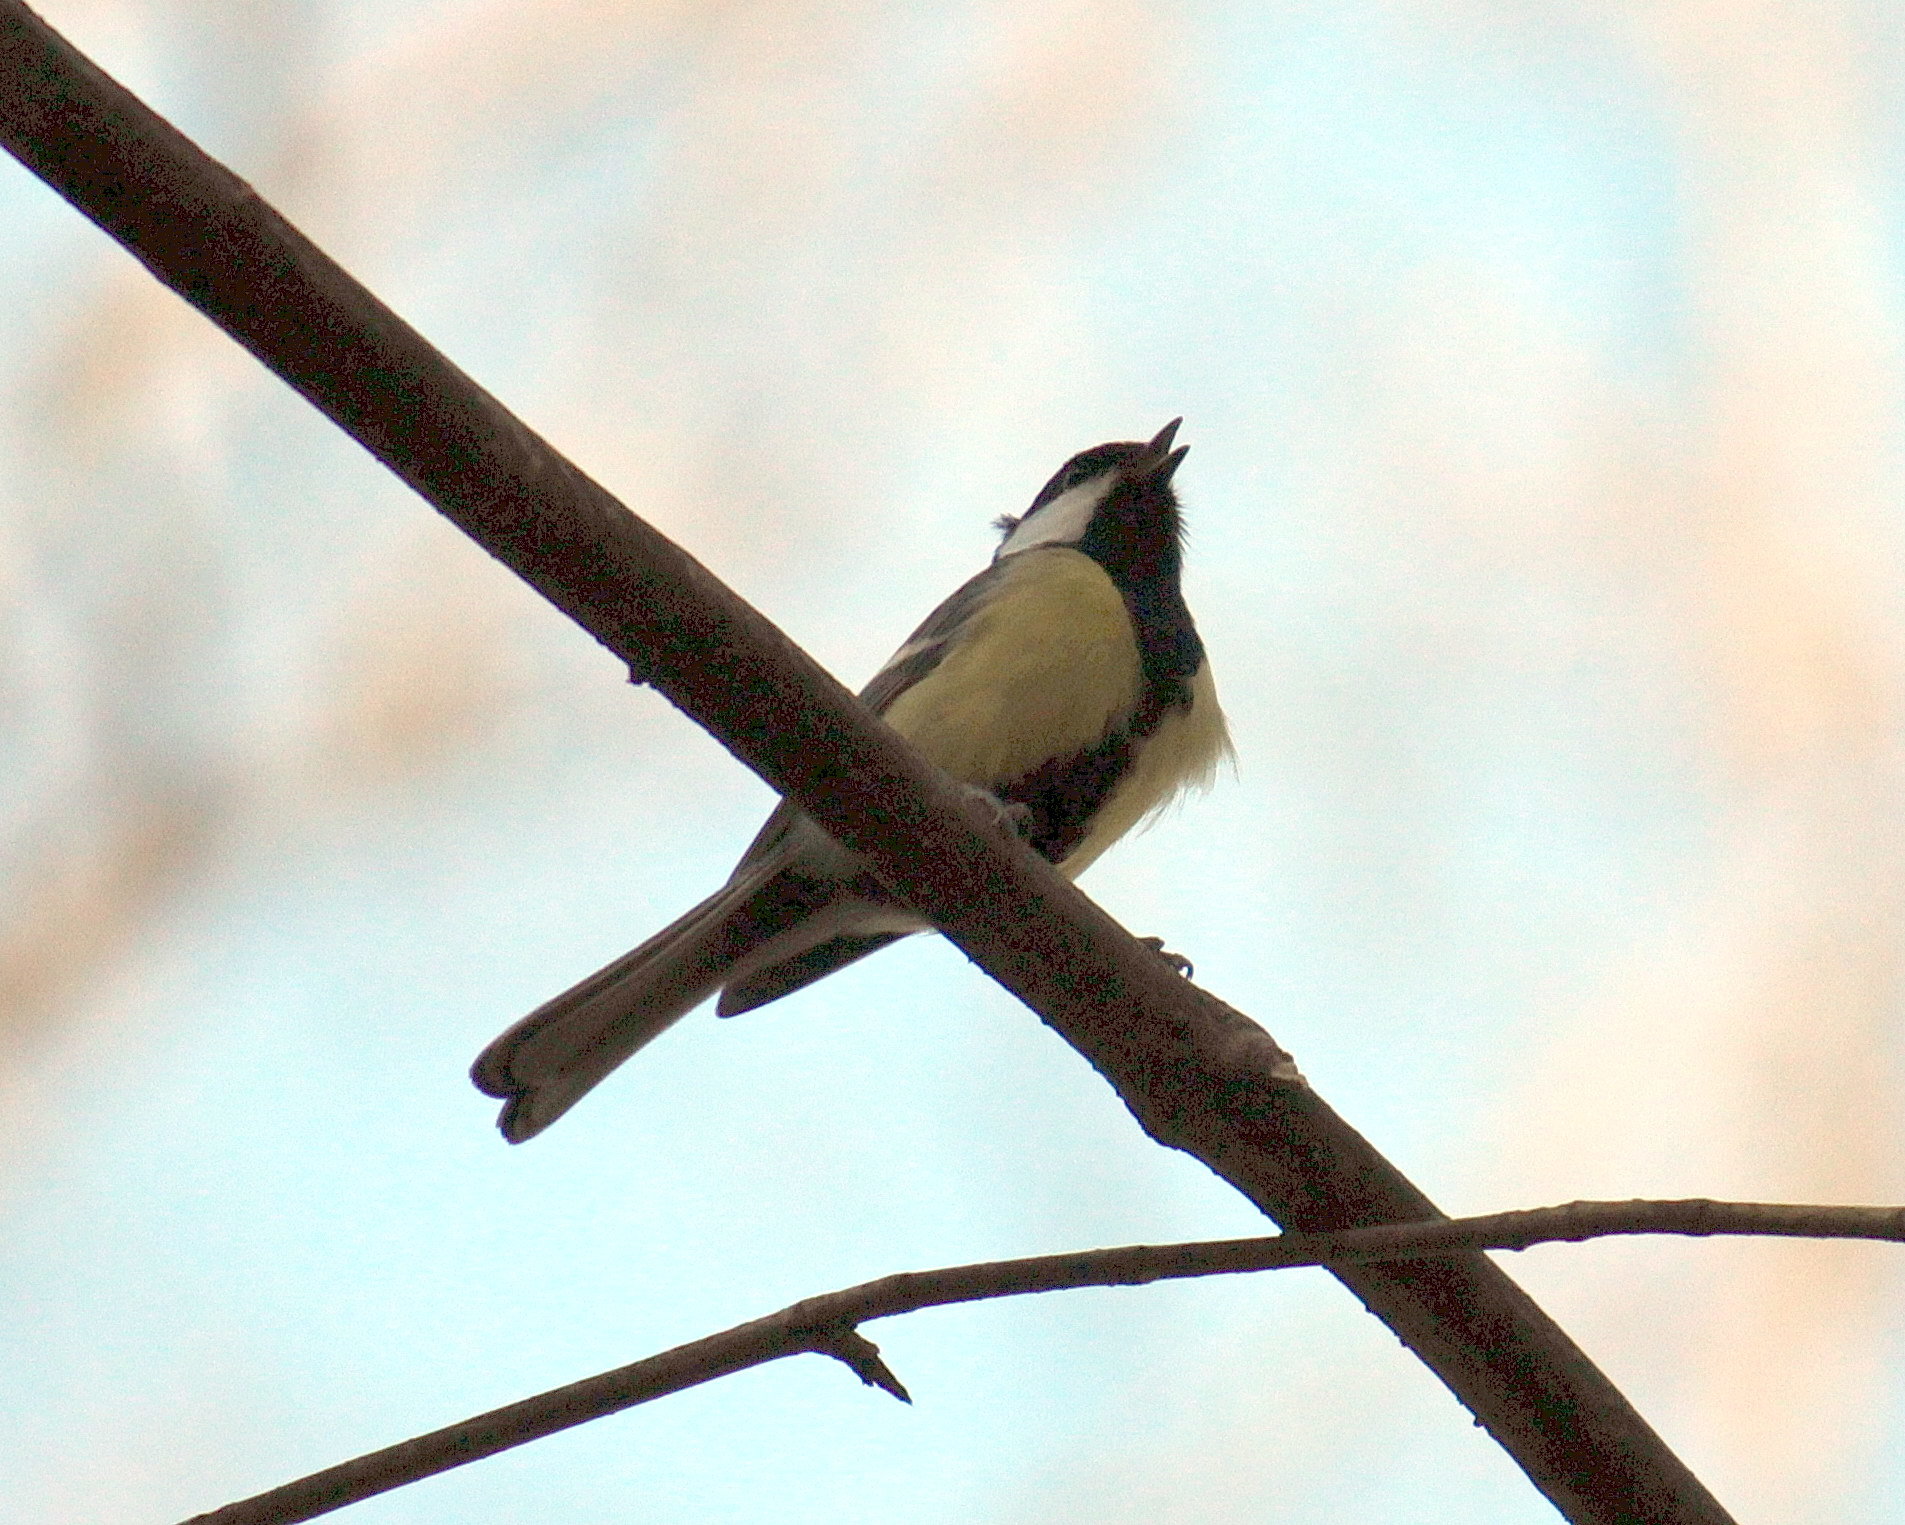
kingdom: Animalia
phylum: Chordata
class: Aves
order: Passeriformes
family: Paridae
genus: Parus
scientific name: Parus major
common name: Great tit
